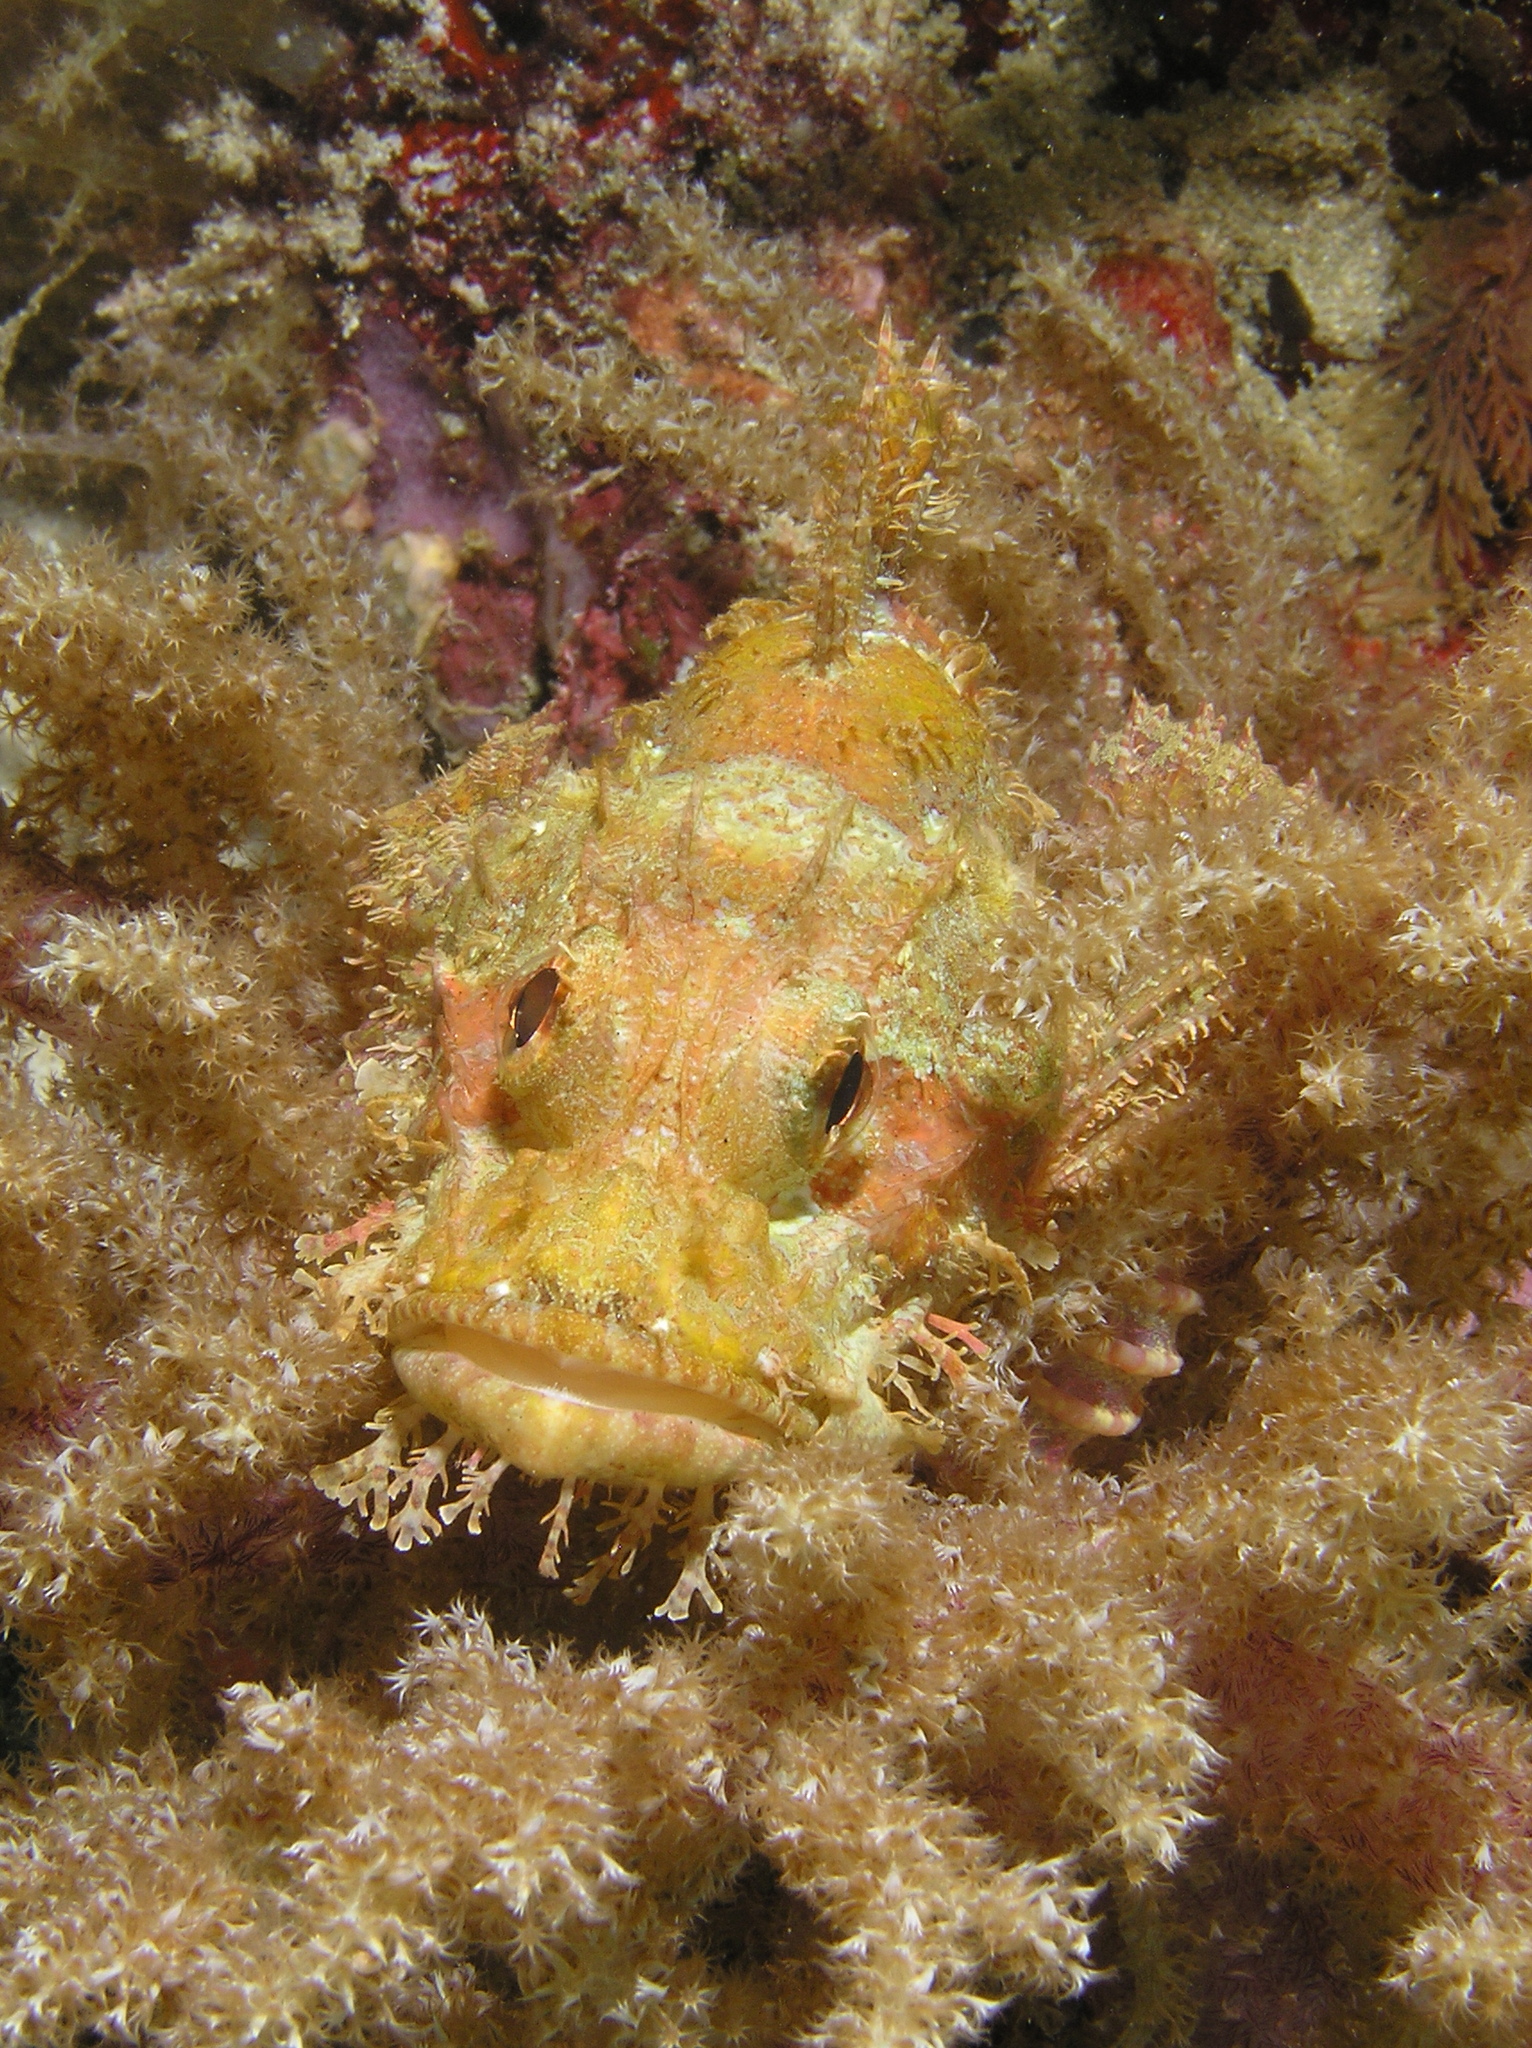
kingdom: Animalia
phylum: Chordata
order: Scorpaeniformes
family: Scorpaenidae
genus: Scorpaenopsis
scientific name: Scorpaenopsis
